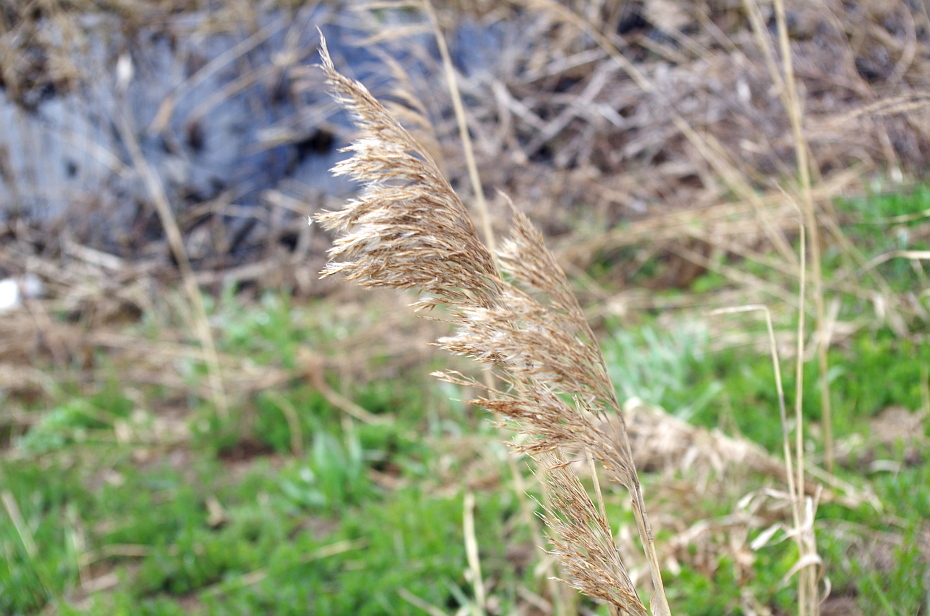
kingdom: Plantae
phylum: Tracheophyta
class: Liliopsida
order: Poales
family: Poaceae
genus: Phragmites
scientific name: Phragmites australis
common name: Common reed
